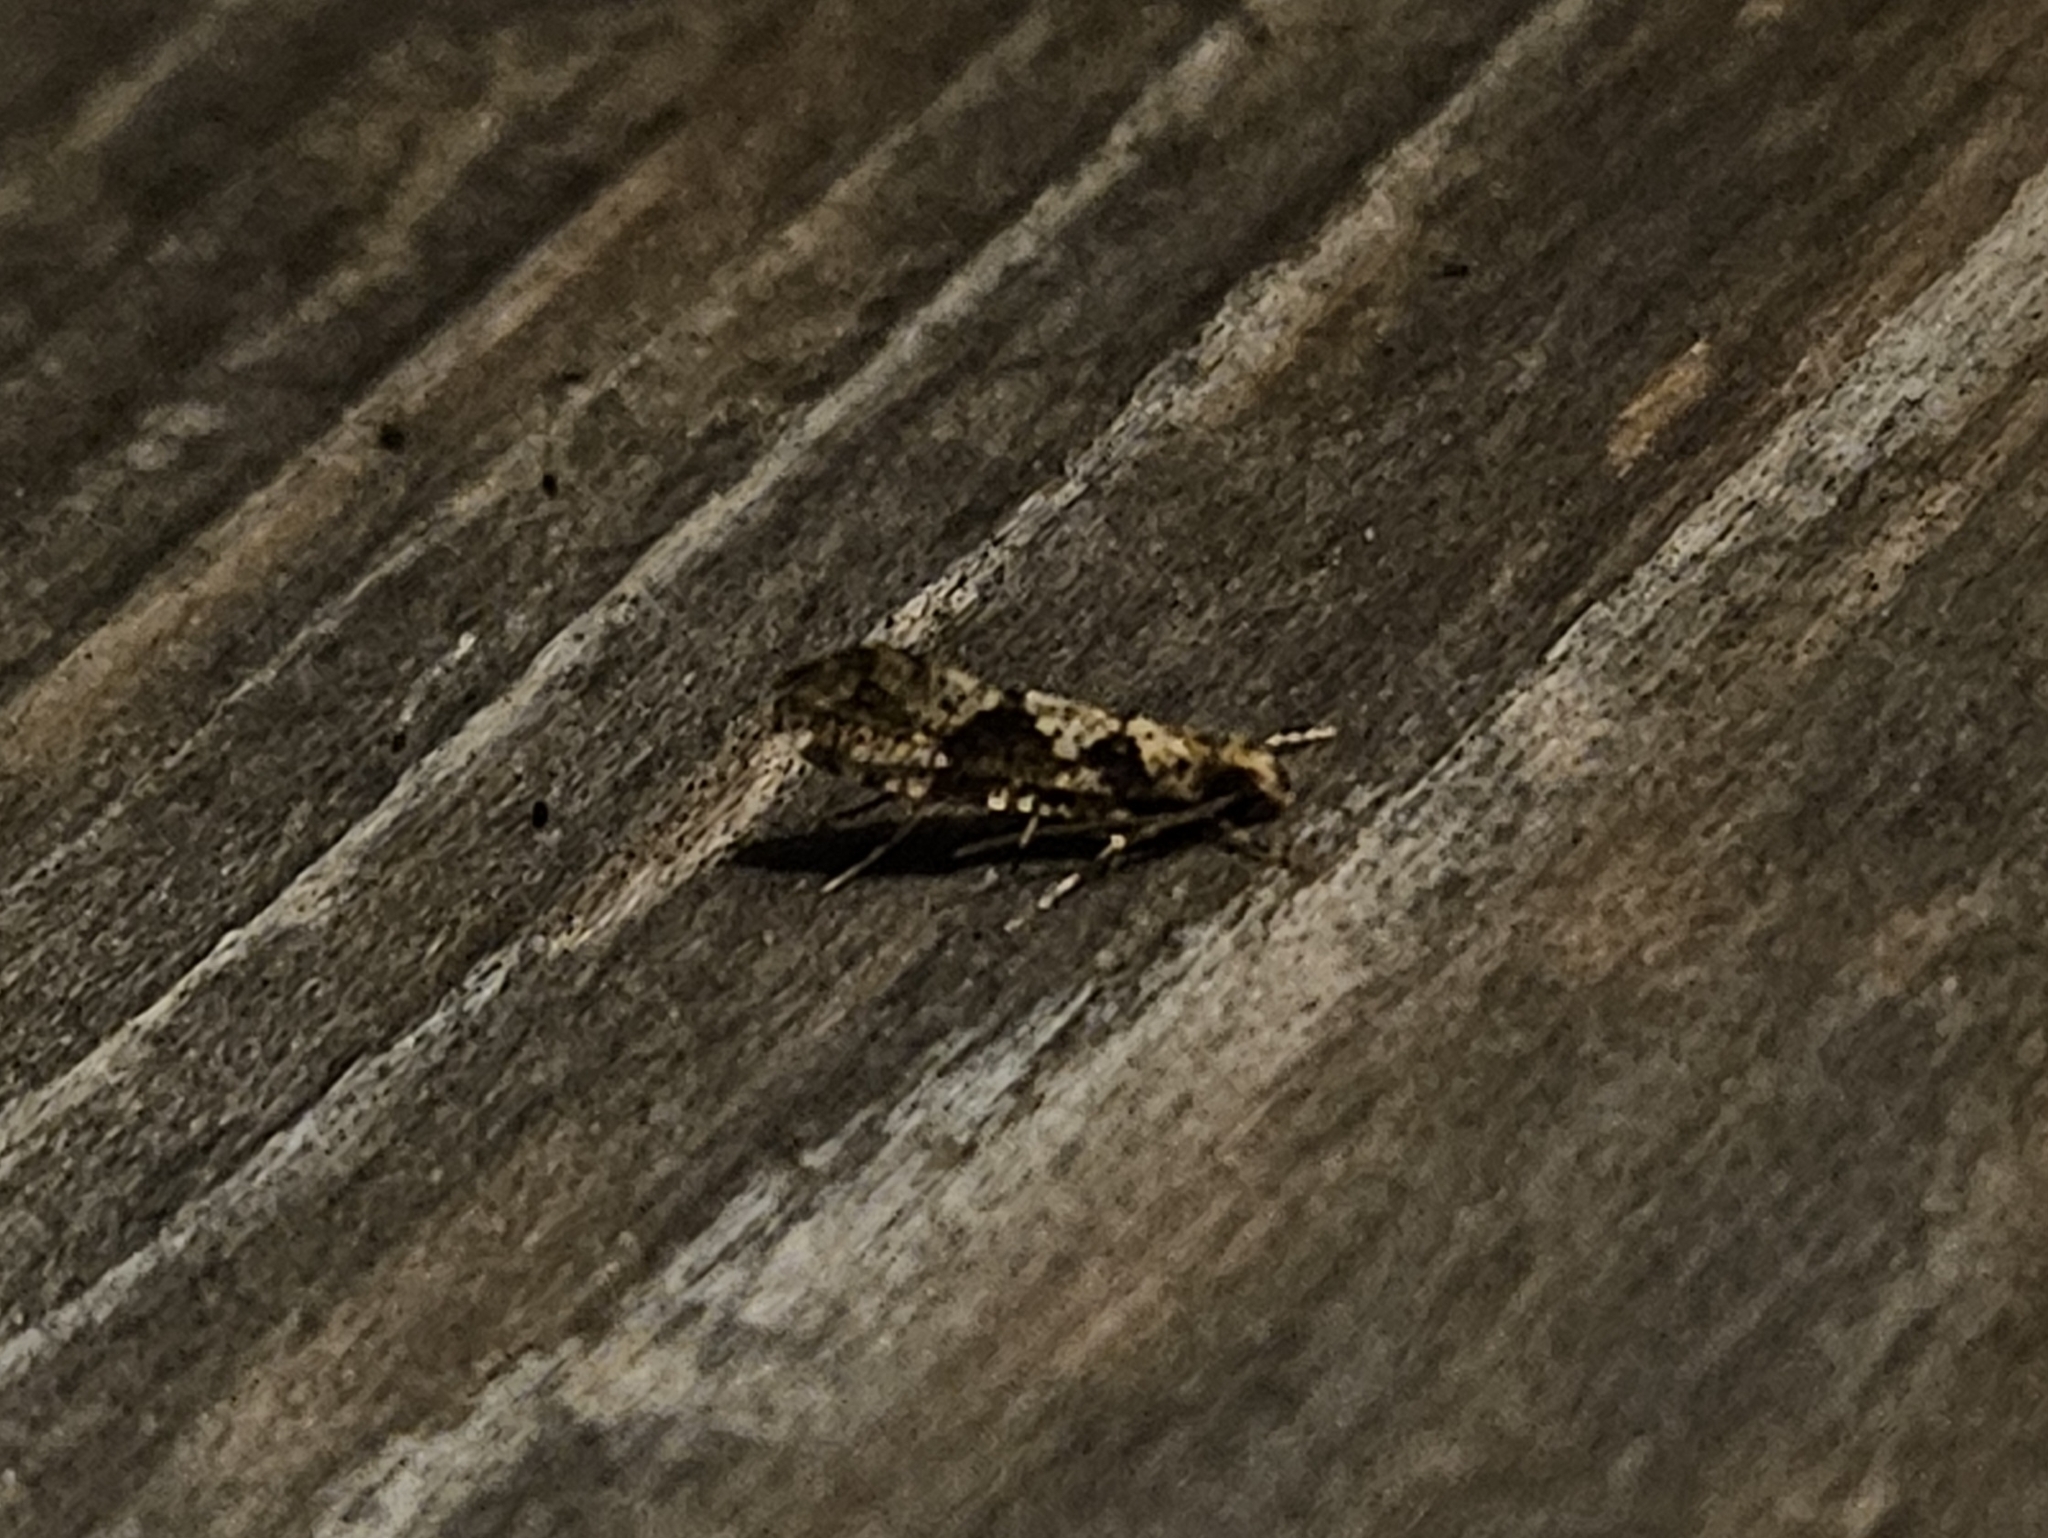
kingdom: Animalia
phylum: Arthropoda
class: Insecta
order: Lepidoptera
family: Tineidae
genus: Scardiella
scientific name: Scardiella approximatella
